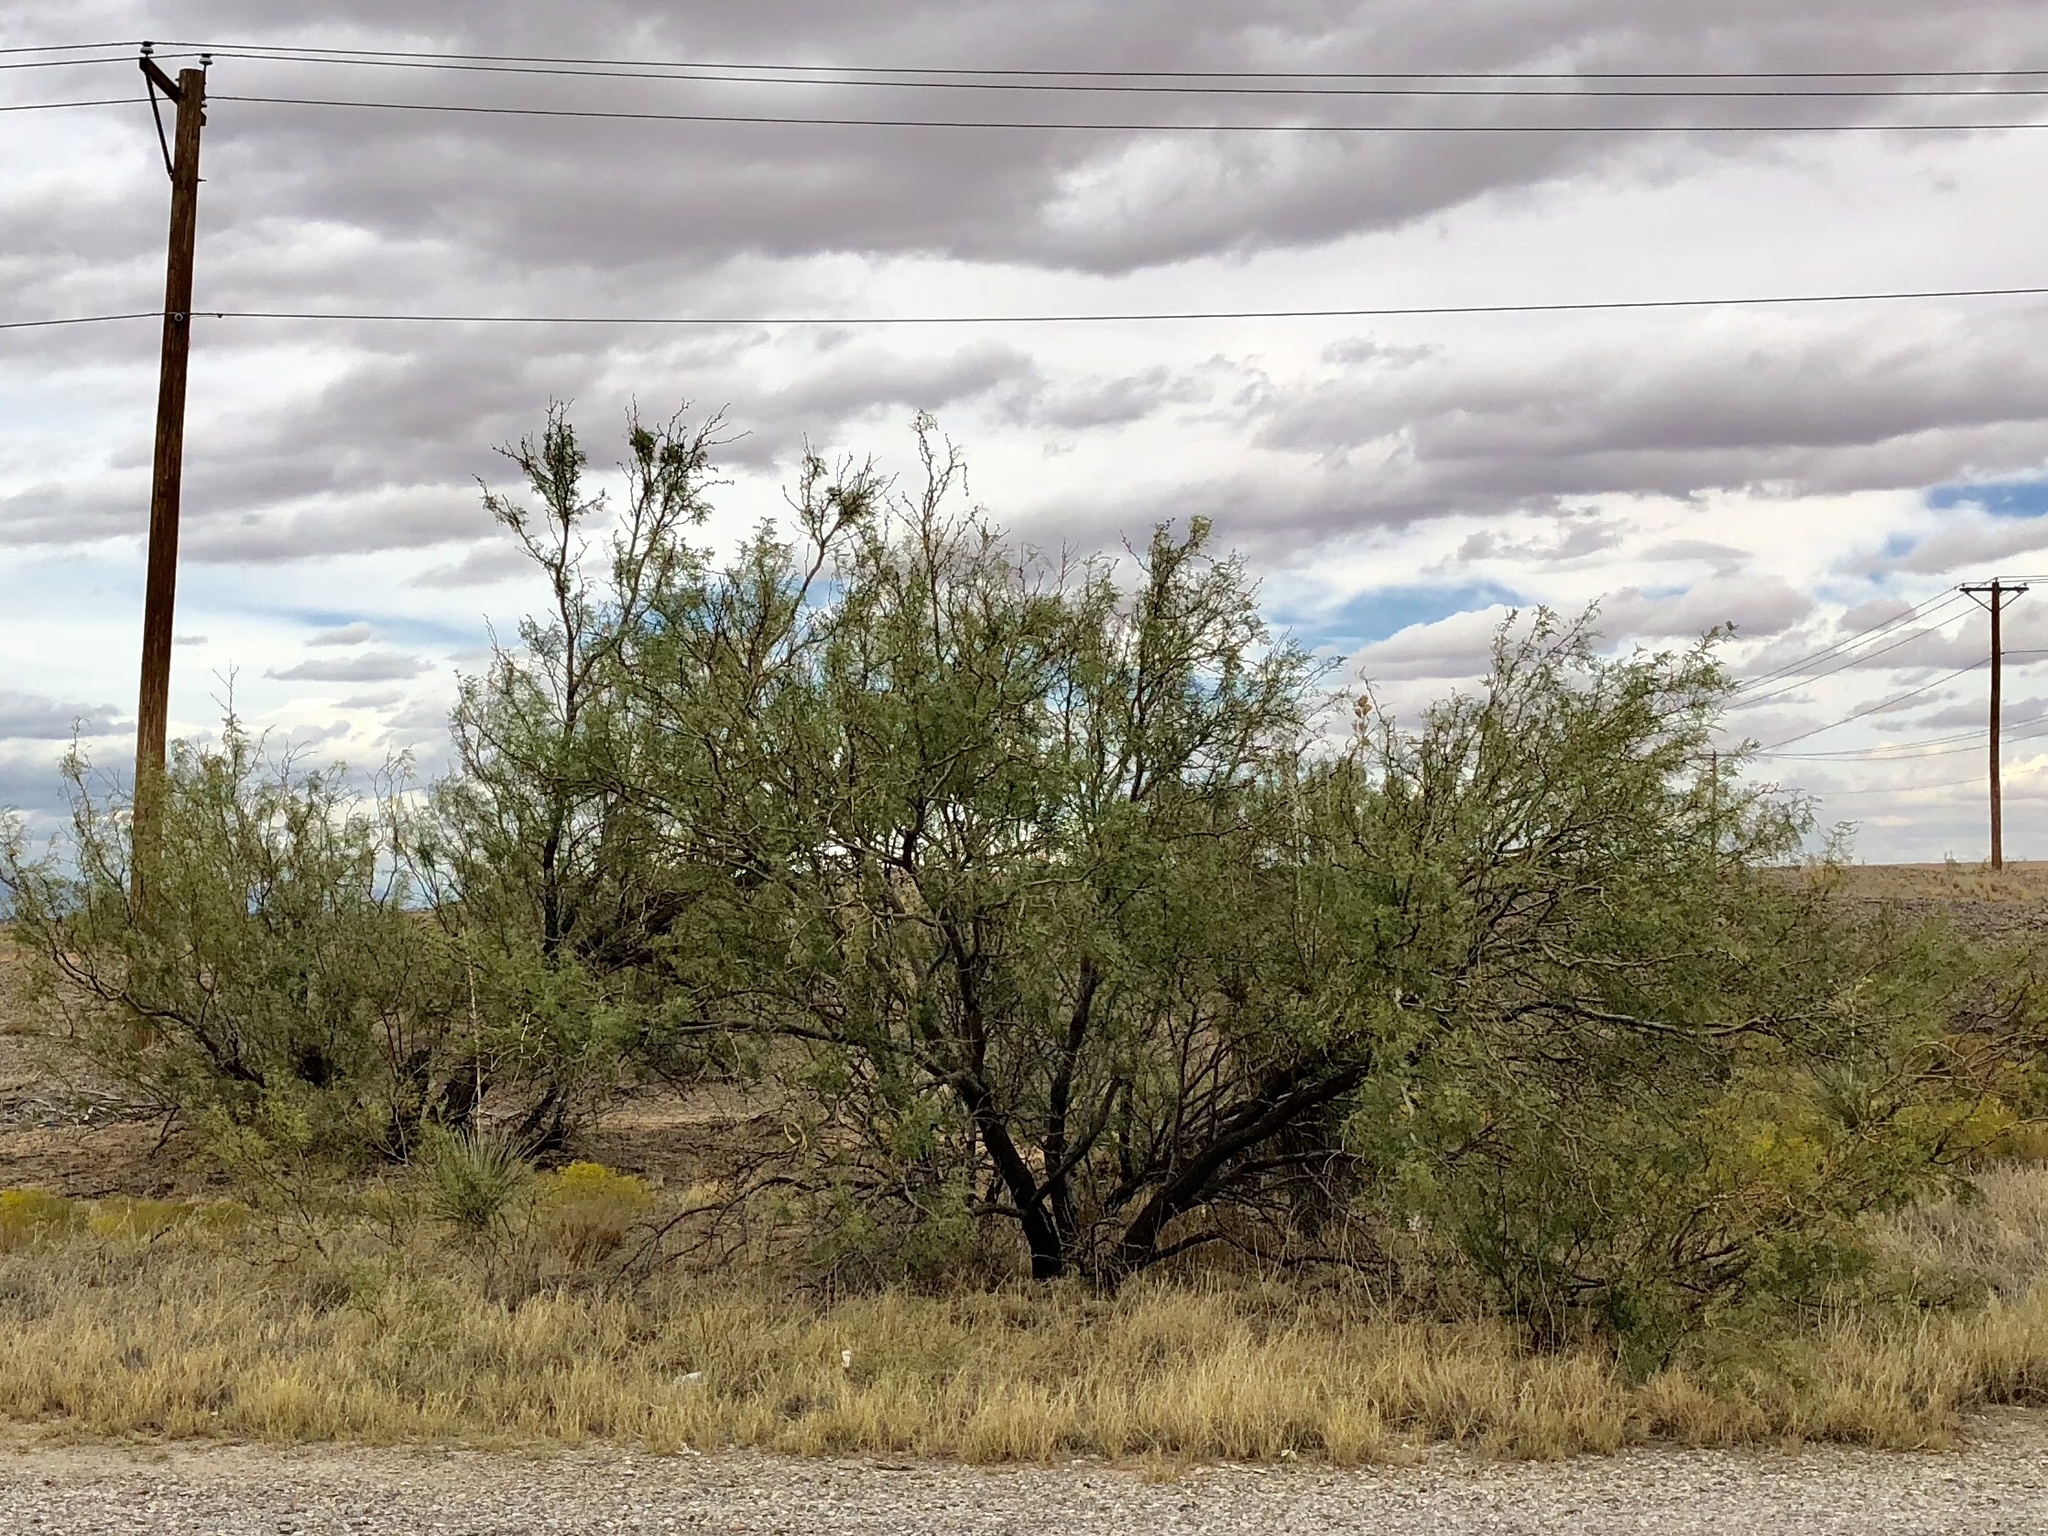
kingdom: Plantae
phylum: Tracheophyta
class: Magnoliopsida
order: Lamiales
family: Bignoniaceae
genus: Chilopsis
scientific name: Chilopsis linearis
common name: Desert-willow
